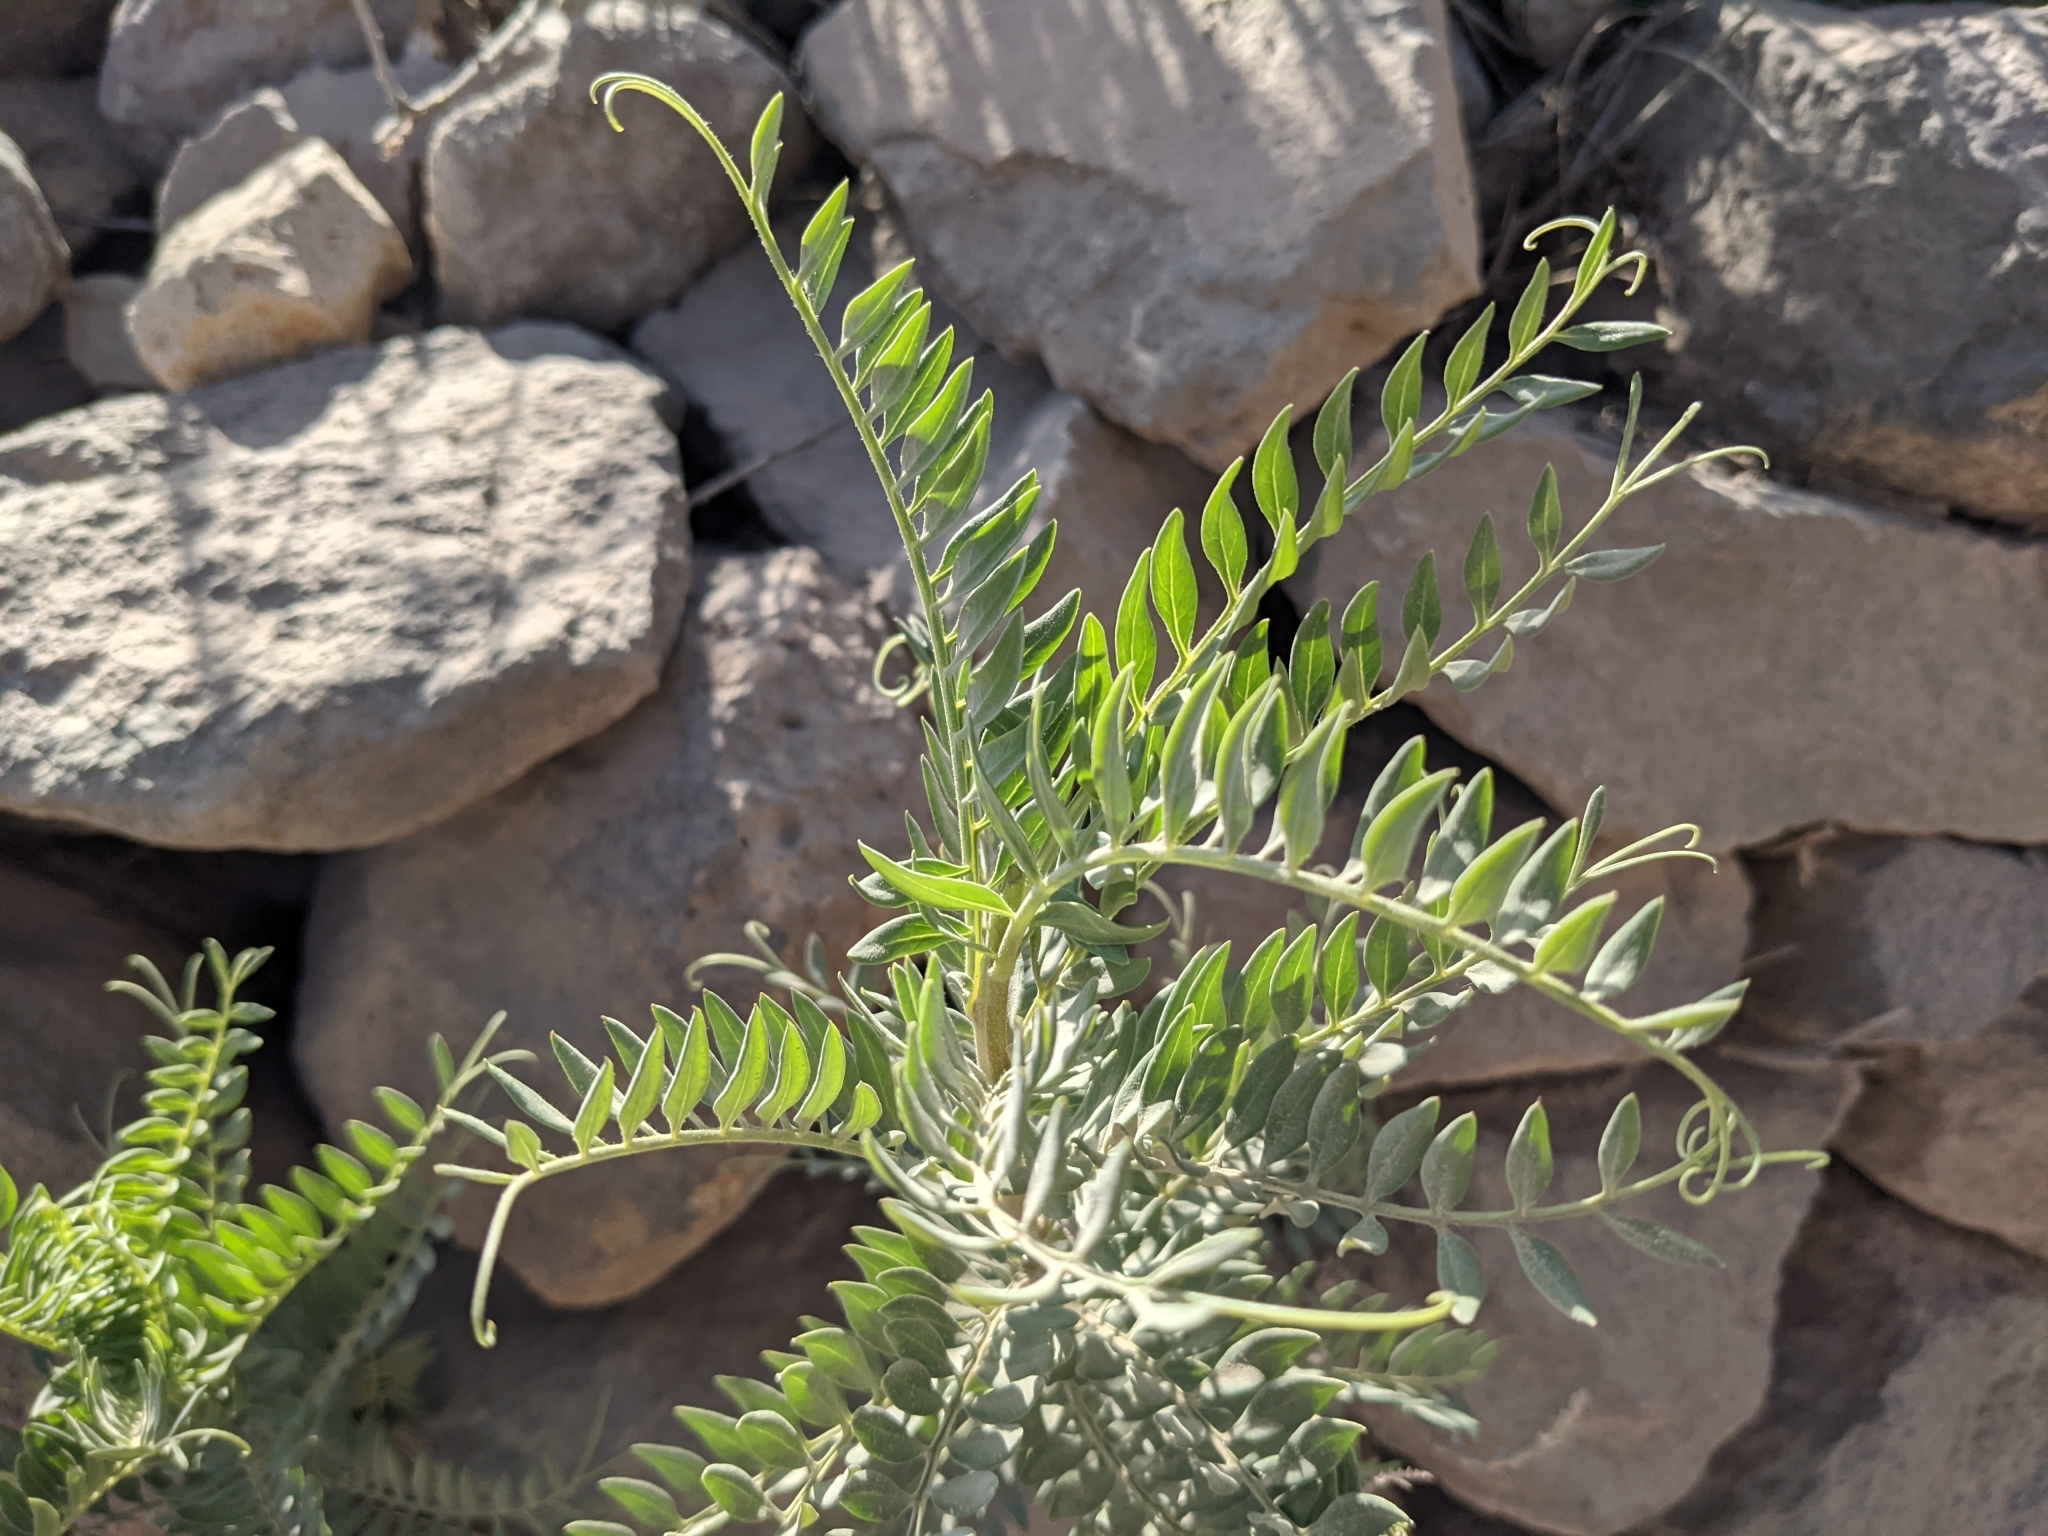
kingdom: Plantae
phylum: Tracheophyta
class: Magnoliopsida
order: Asterales
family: Asteraceae
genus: Mutisia
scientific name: Mutisia acuminata
